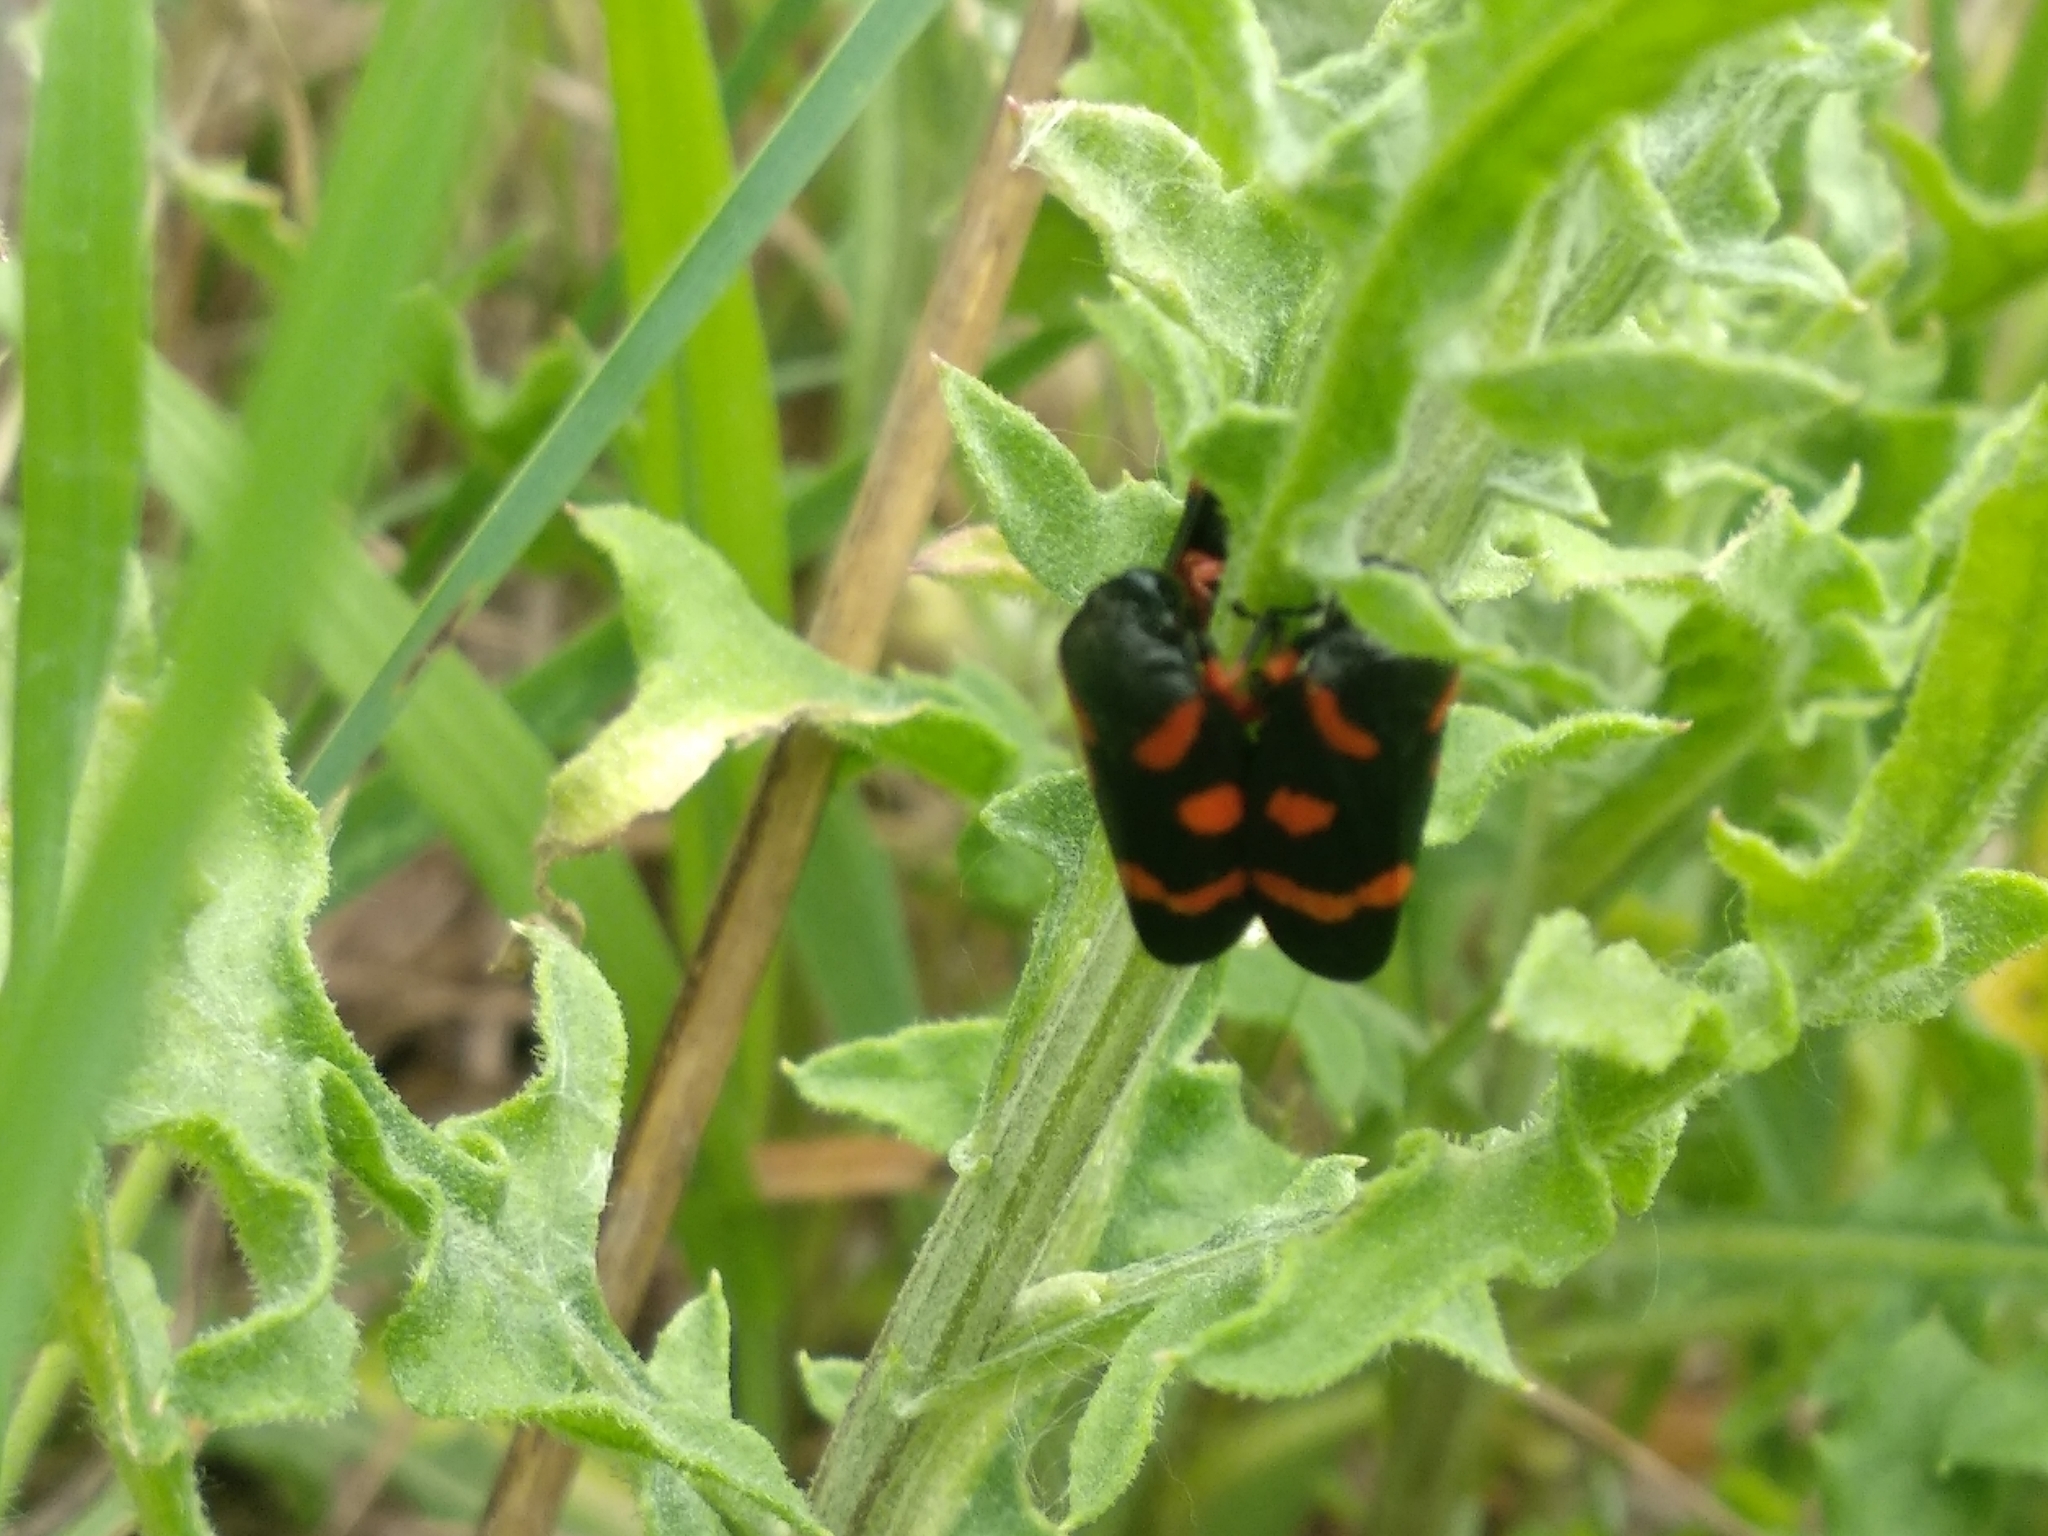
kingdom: Animalia
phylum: Arthropoda
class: Insecta
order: Hemiptera
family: Cercopidae
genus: Cercopis
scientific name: Cercopis intermedia
